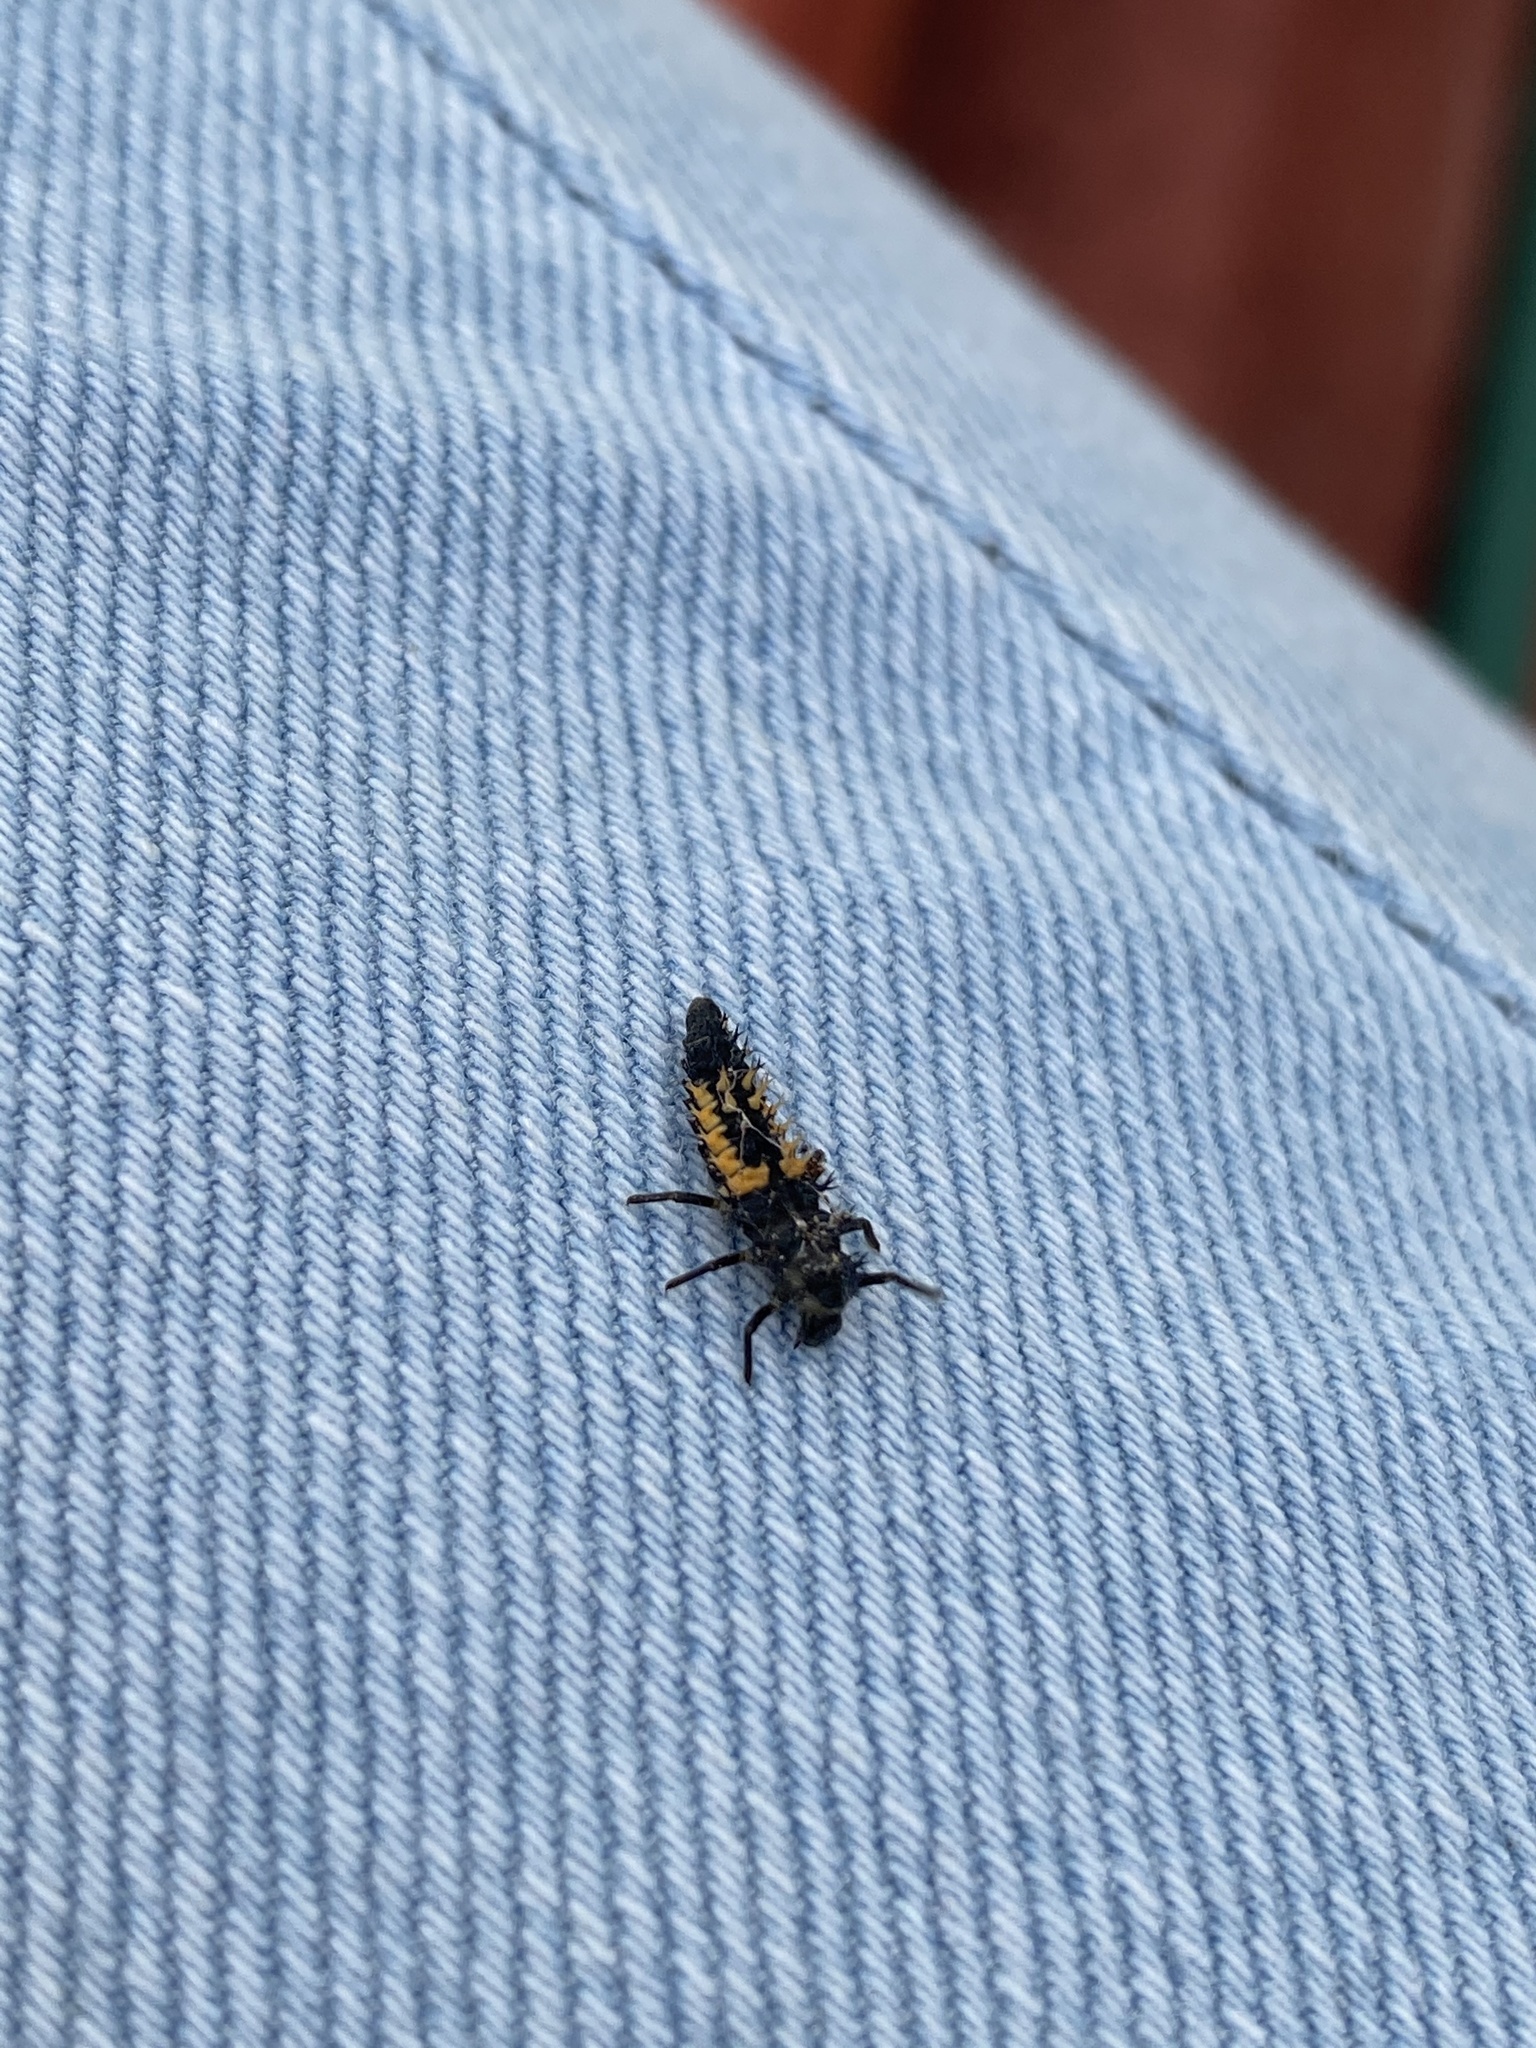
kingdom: Animalia
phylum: Arthropoda
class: Insecta
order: Coleoptera
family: Coccinellidae
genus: Harmonia
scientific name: Harmonia axyridis
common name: Harlequin ladybird
